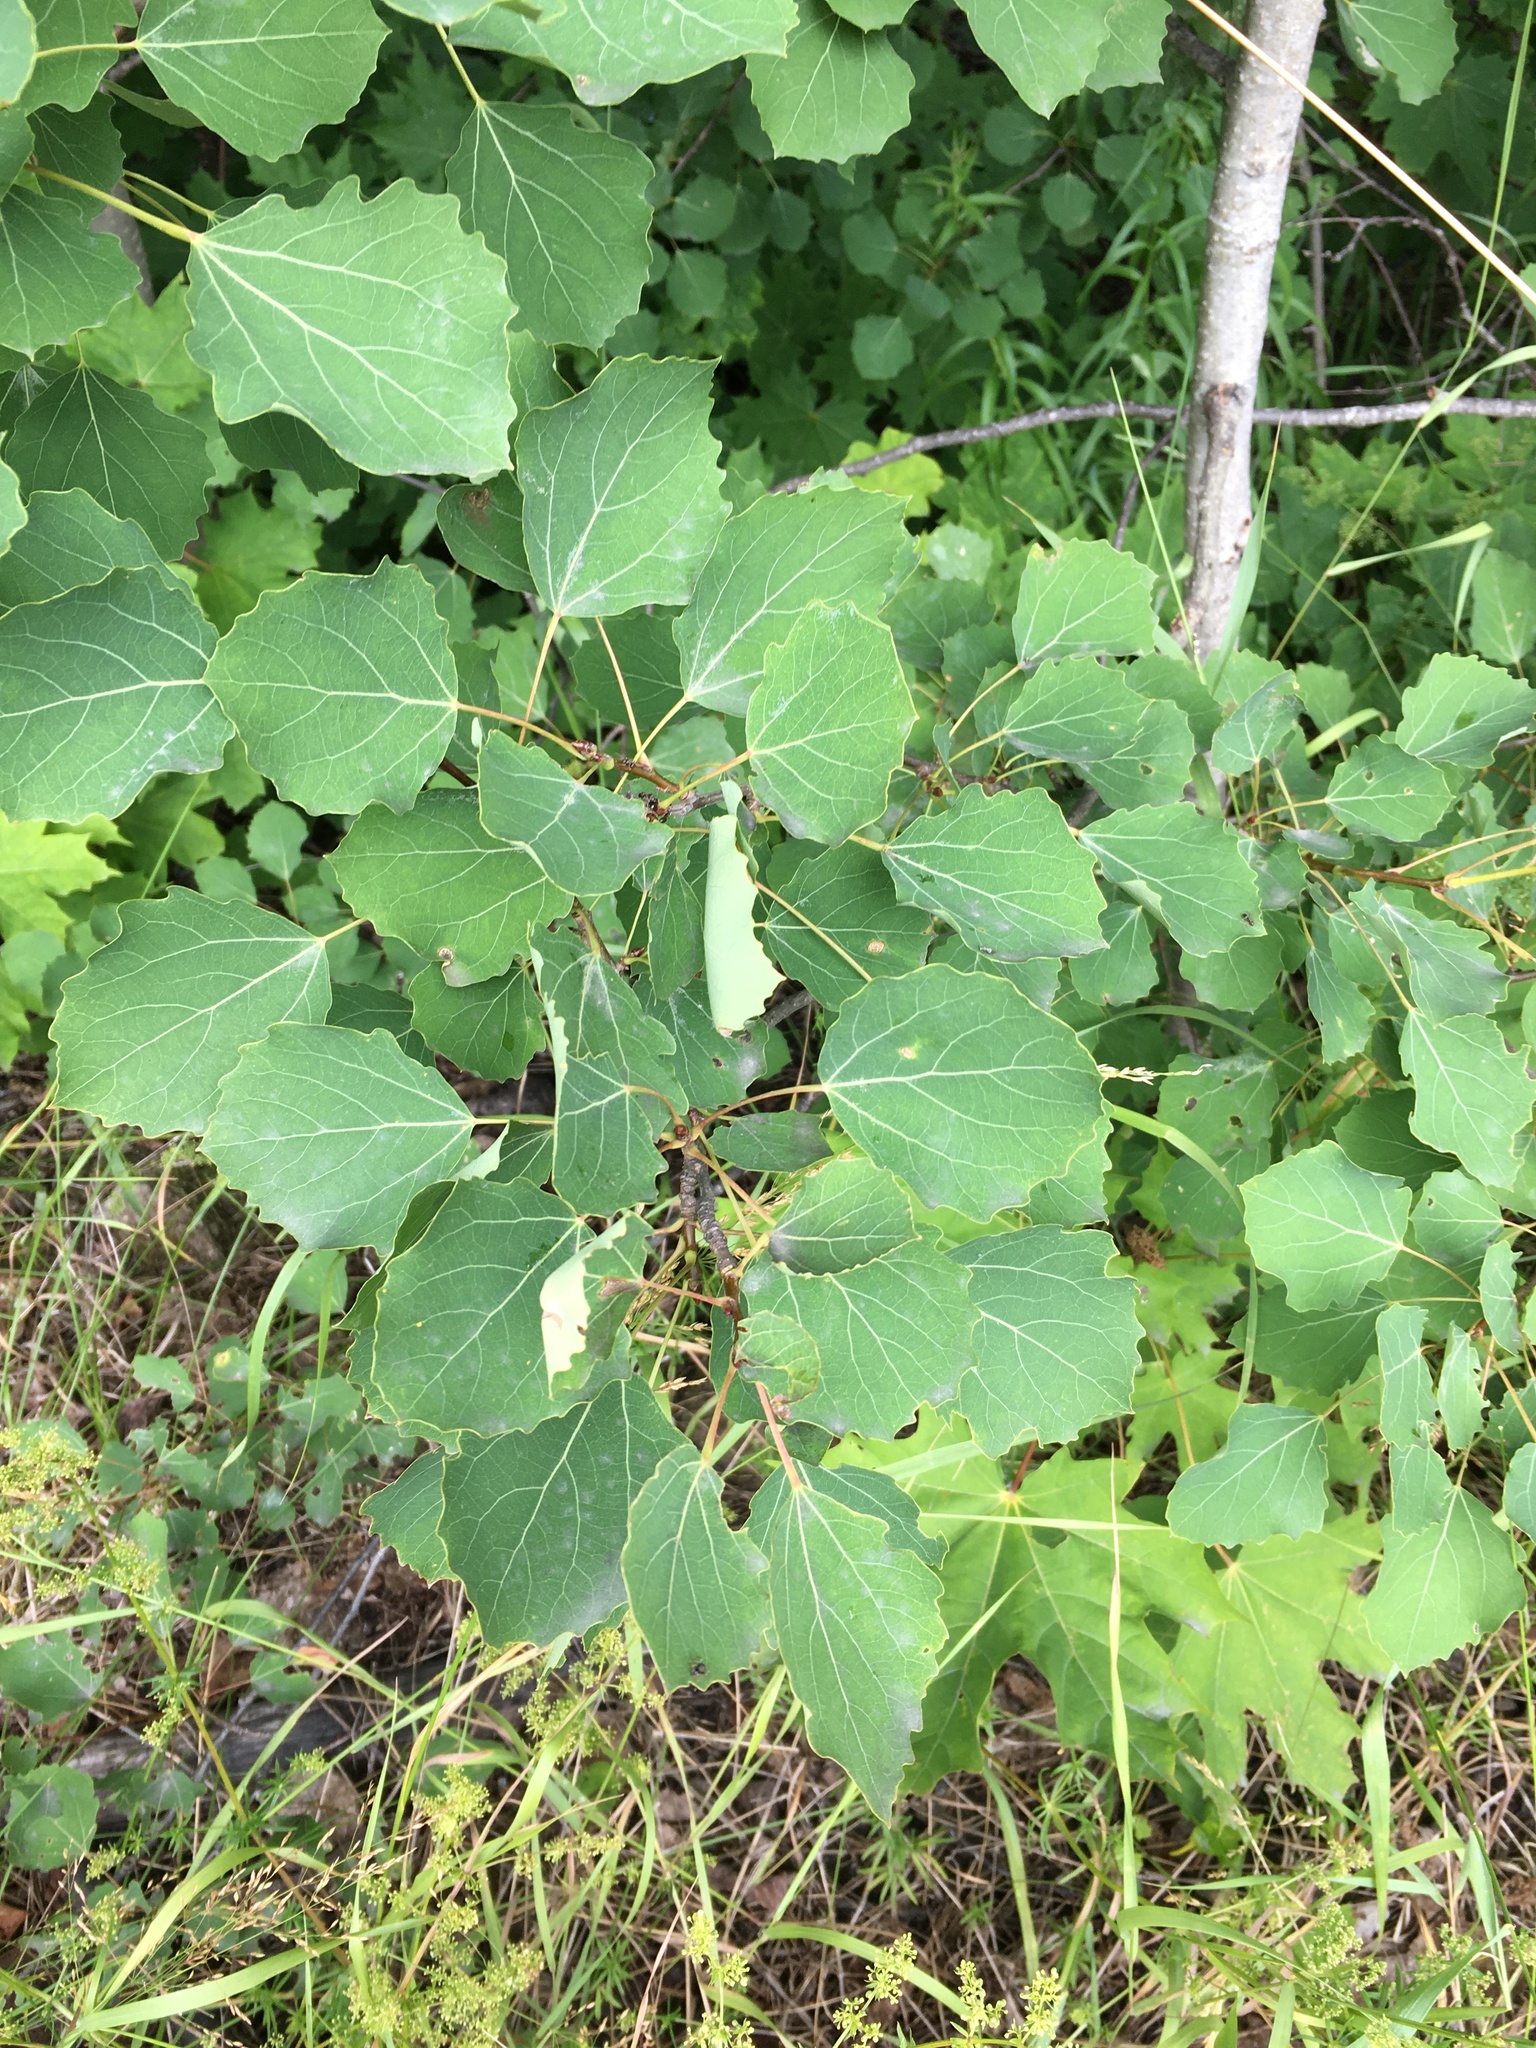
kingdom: Plantae
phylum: Tracheophyta
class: Magnoliopsida
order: Malpighiales
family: Salicaceae
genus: Populus
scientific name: Populus tremula
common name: European aspen
